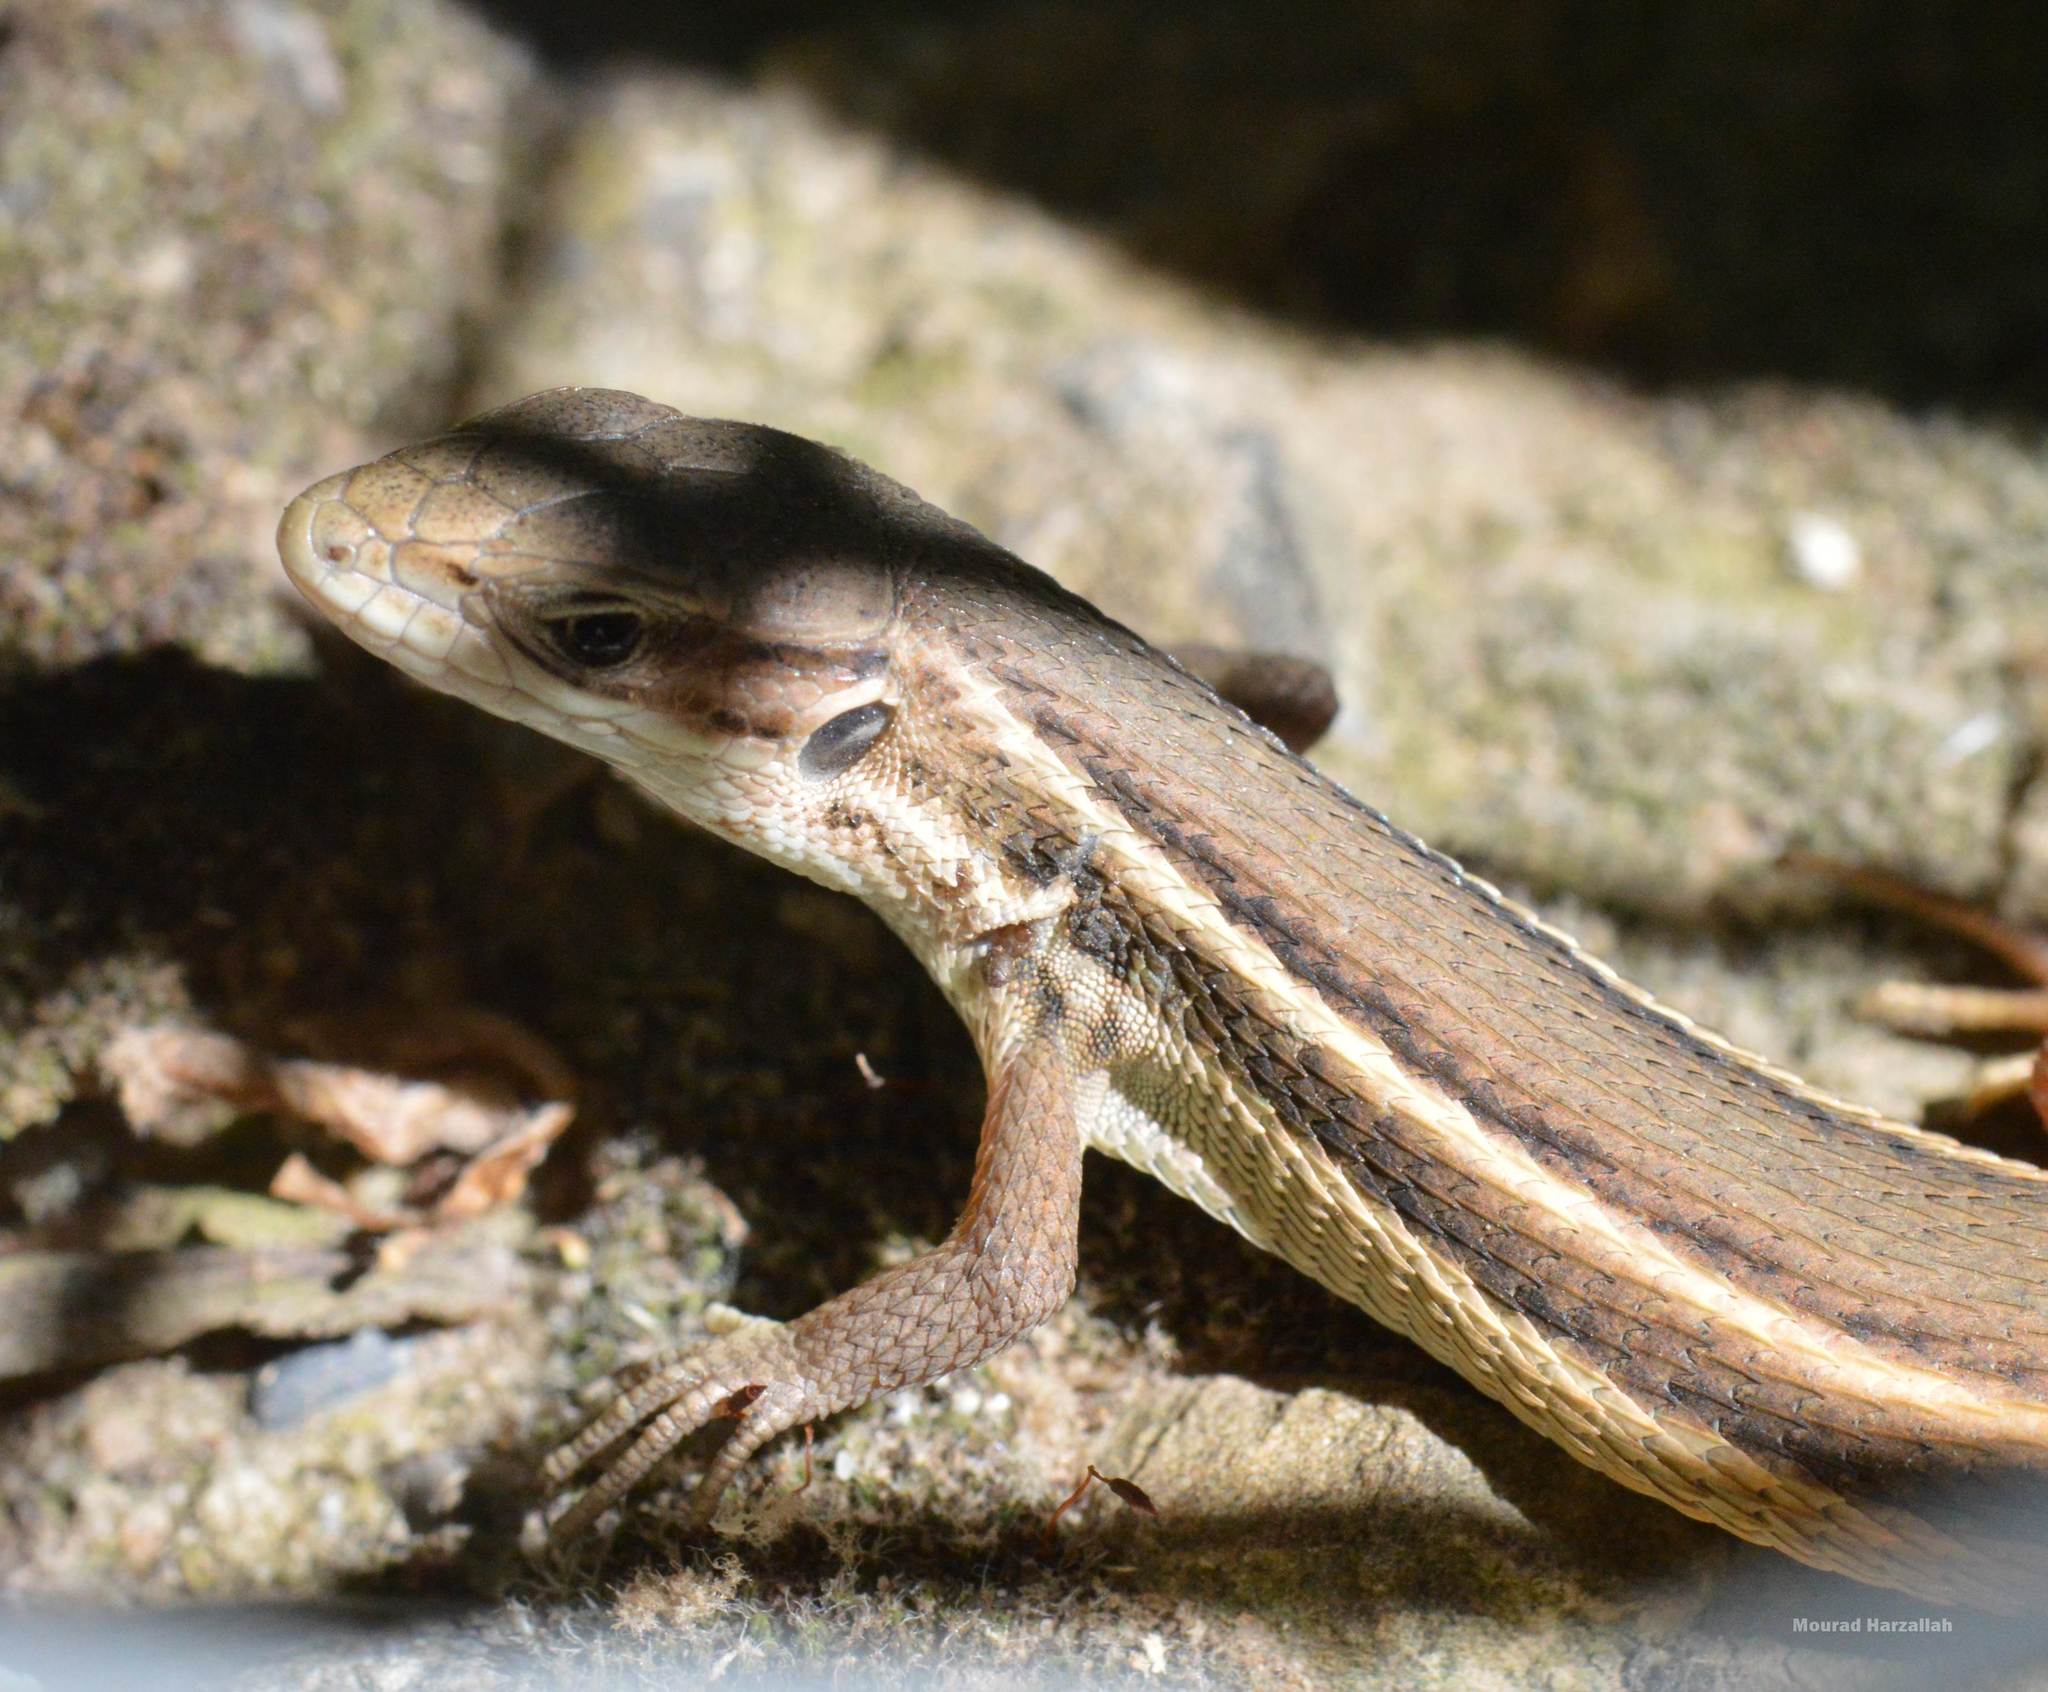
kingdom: Animalia
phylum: Chordata
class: Squamata
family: Lacertidae
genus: Psammodromus
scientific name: Psammodromus algirus
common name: Algerian psammodromus
